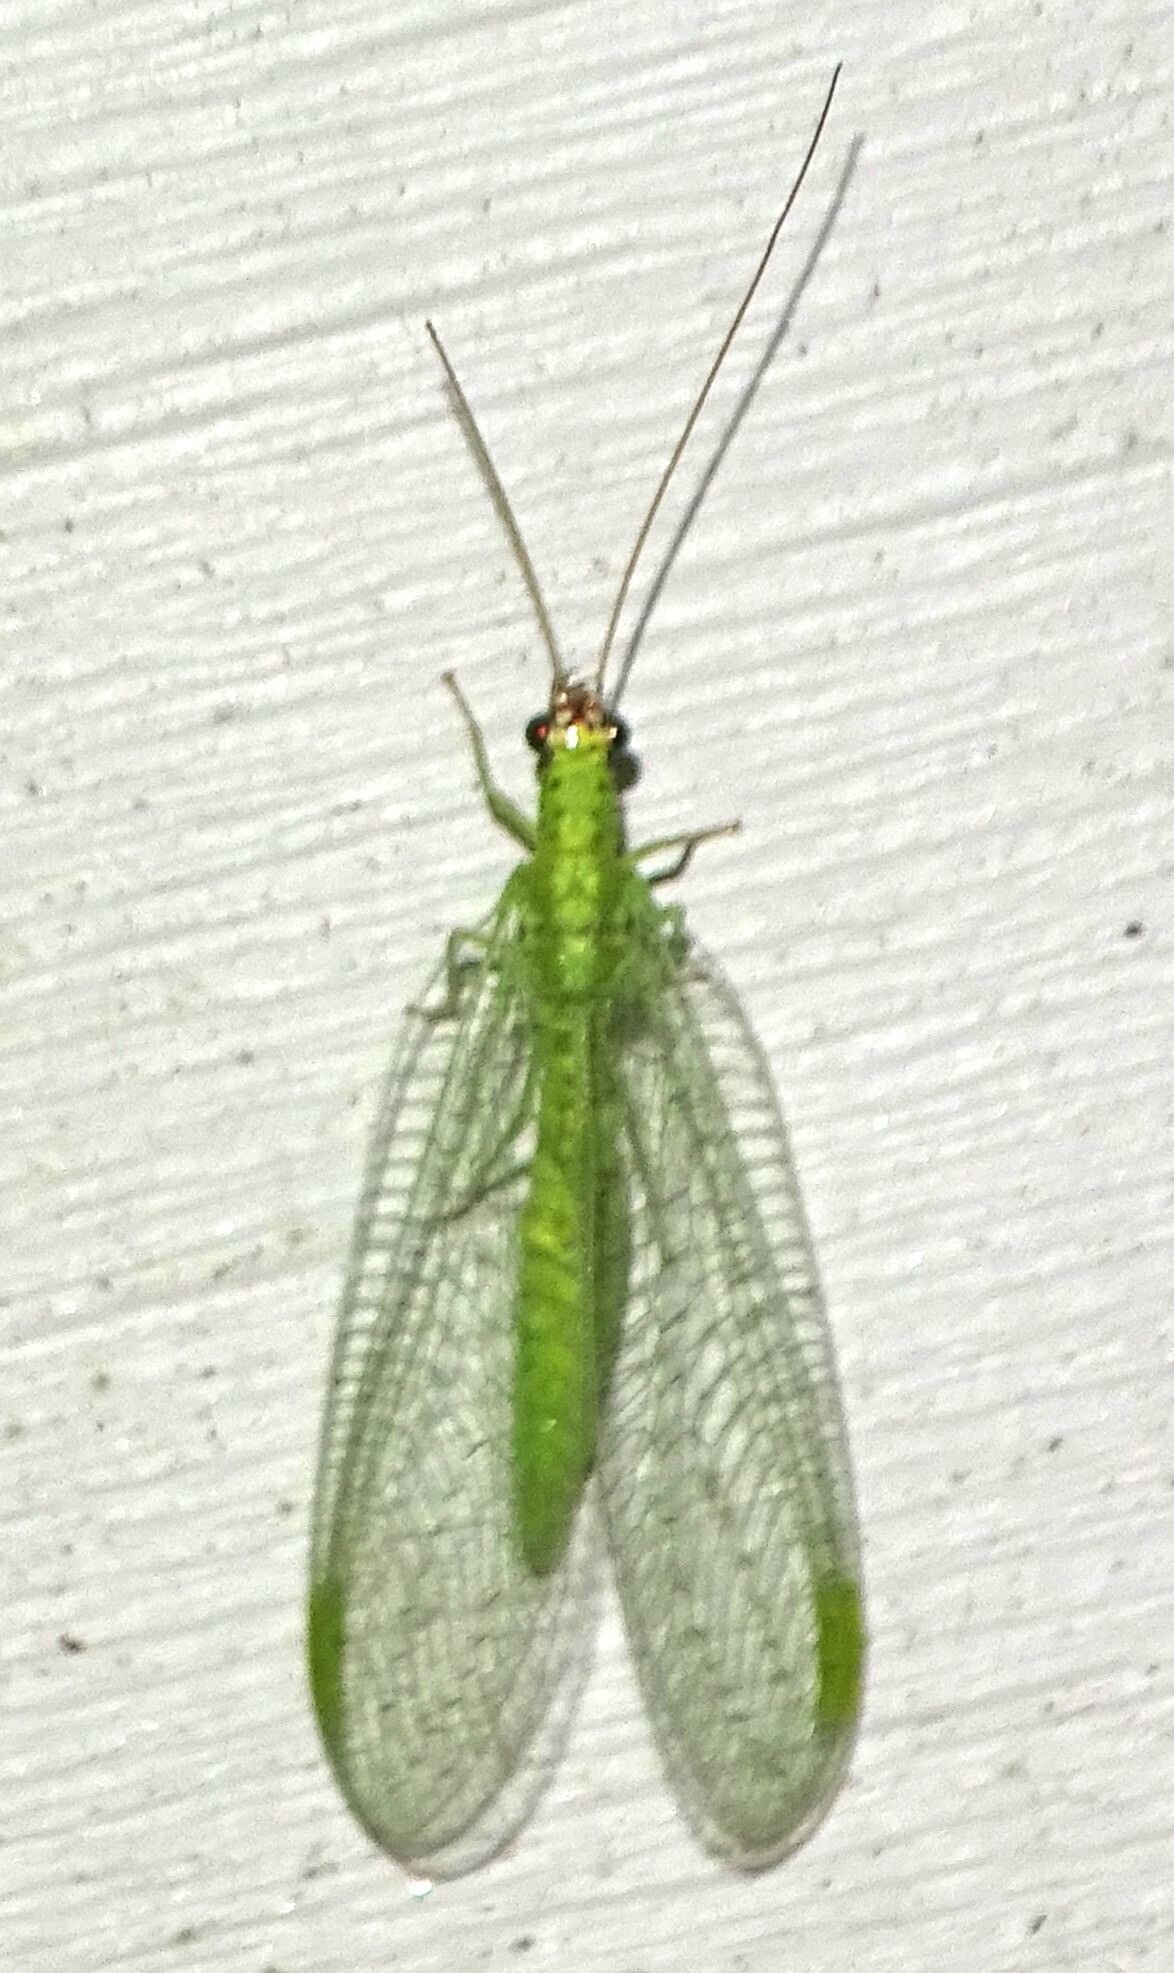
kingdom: Animalia
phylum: Arthropoda
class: Insecta
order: Neuroptera
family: Chrysopidae
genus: Chrysopa
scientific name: Chrysopa oculata
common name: Golden-eyed lacewing
